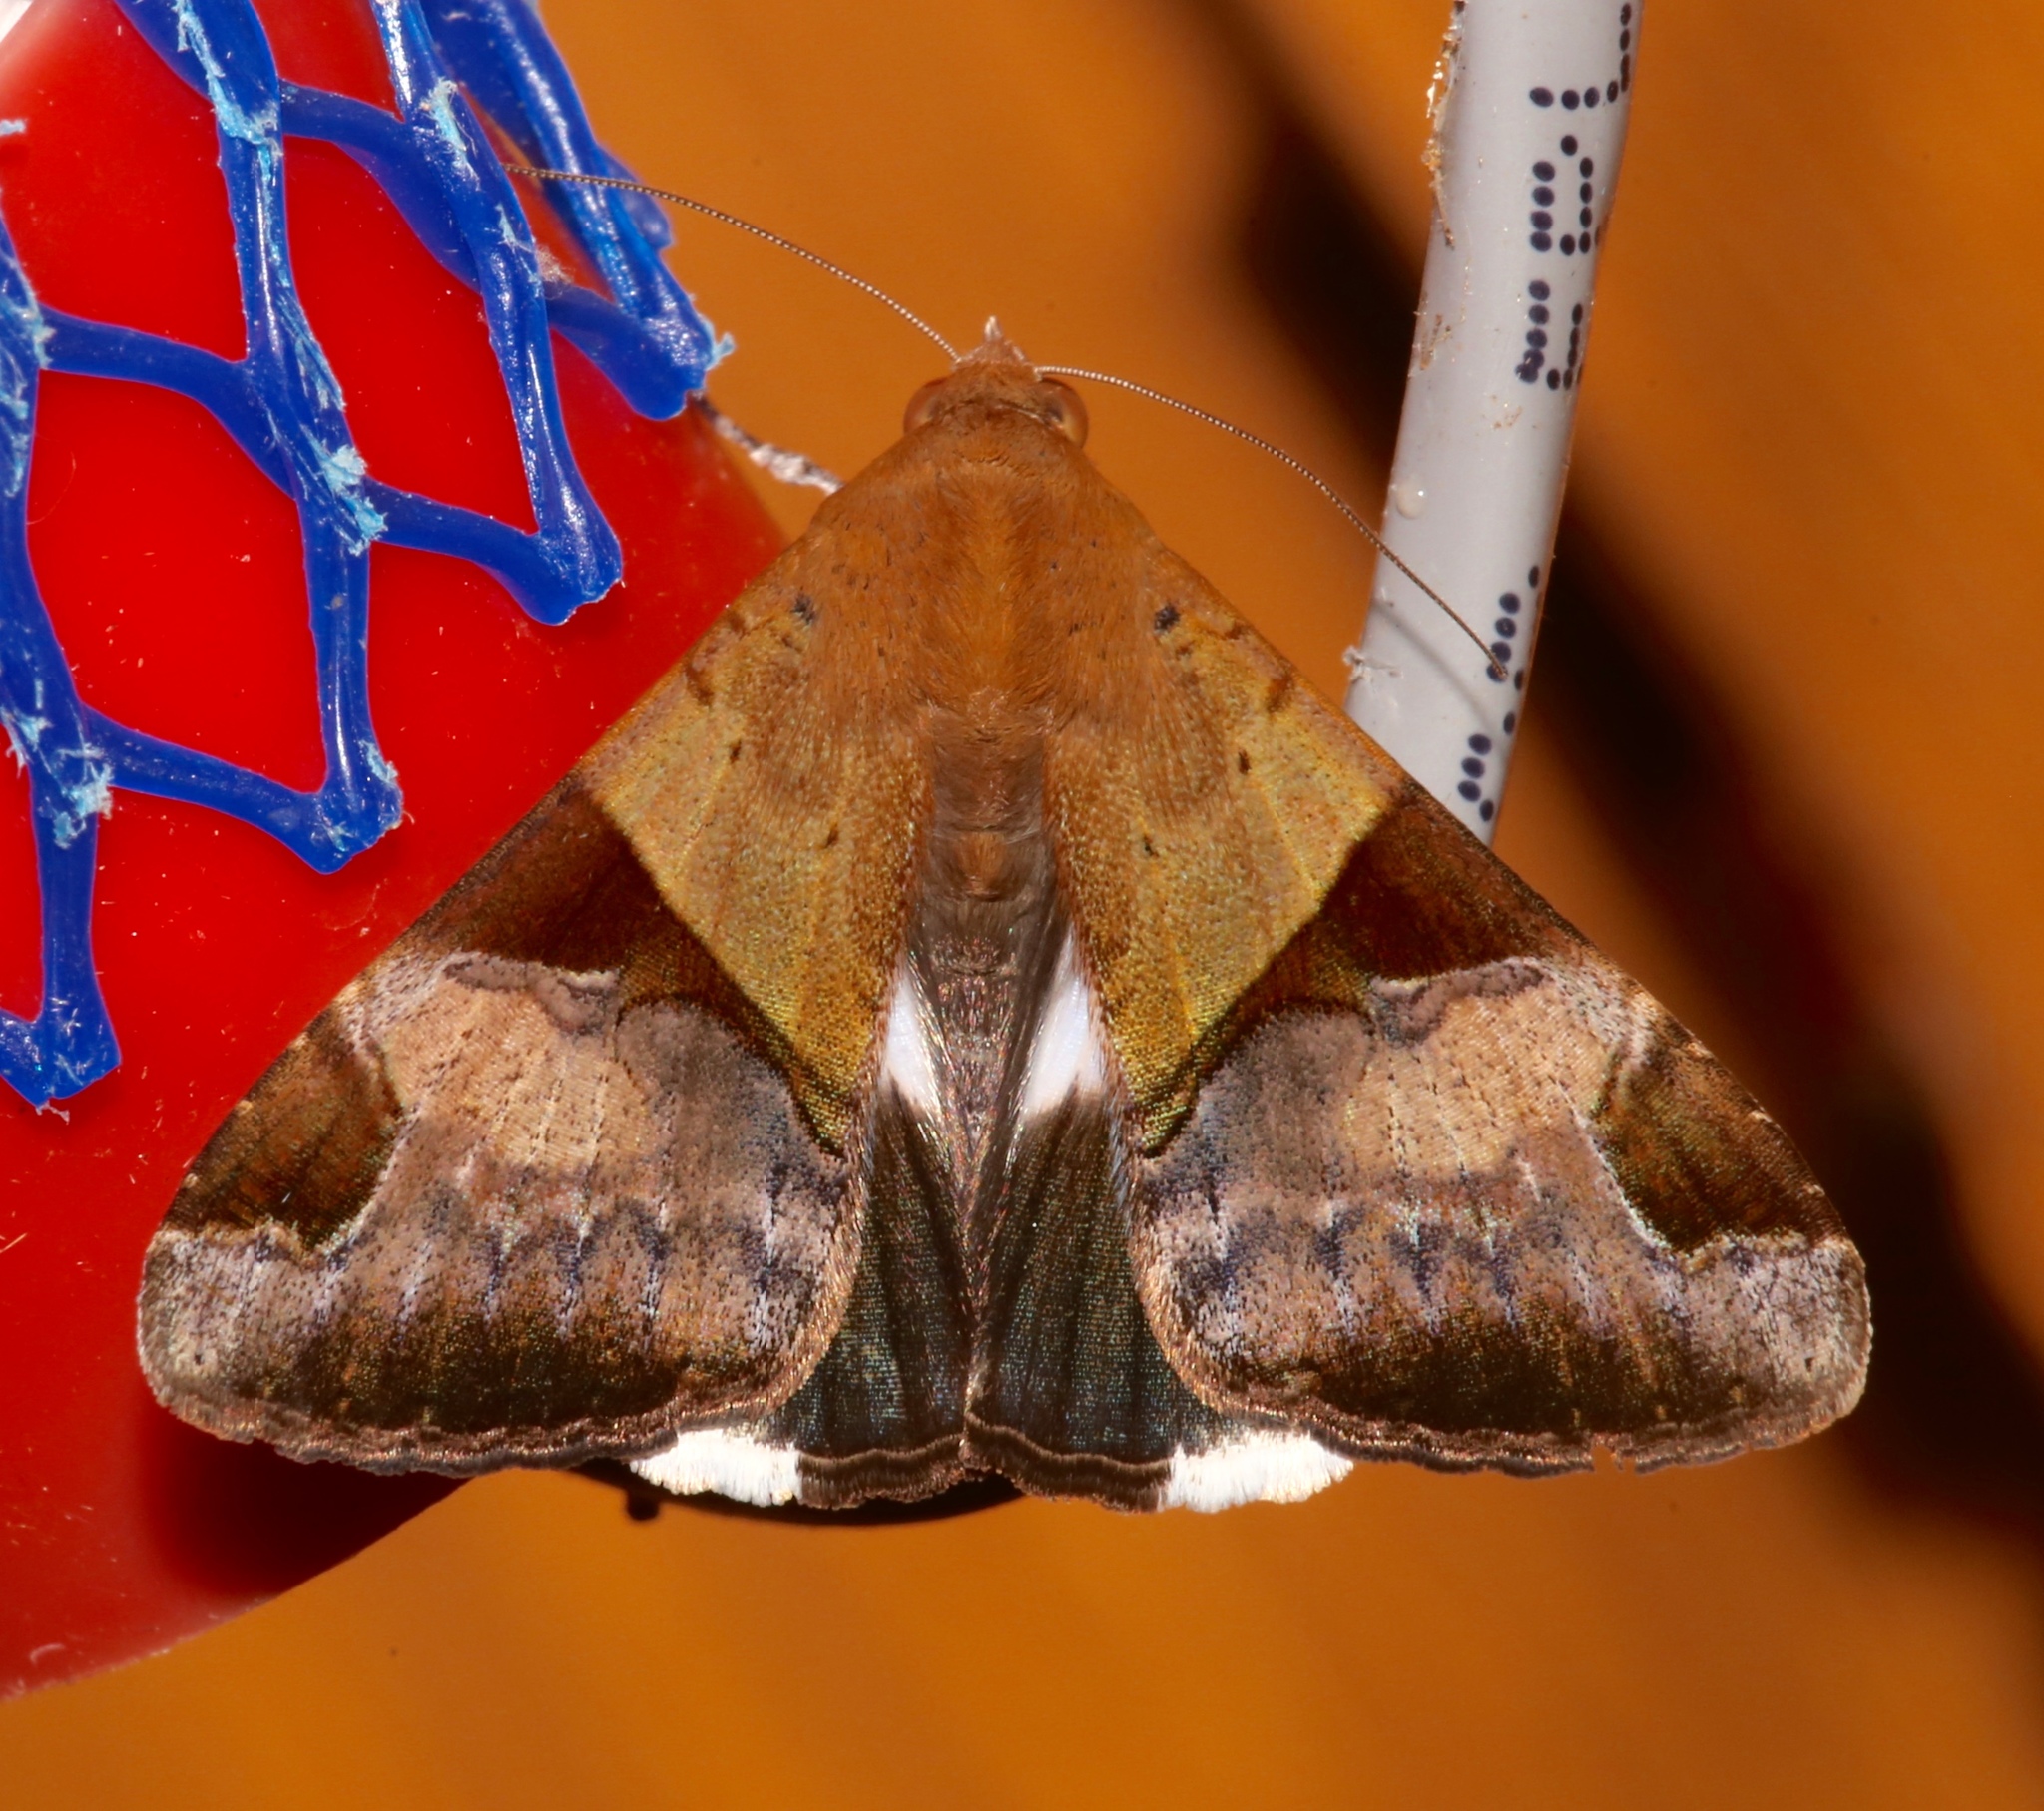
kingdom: Animalia
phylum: Arthropoda
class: Insecta
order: Lepidoptera
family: Erebidae
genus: Melipotis
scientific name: Melipotis fasciolaris
